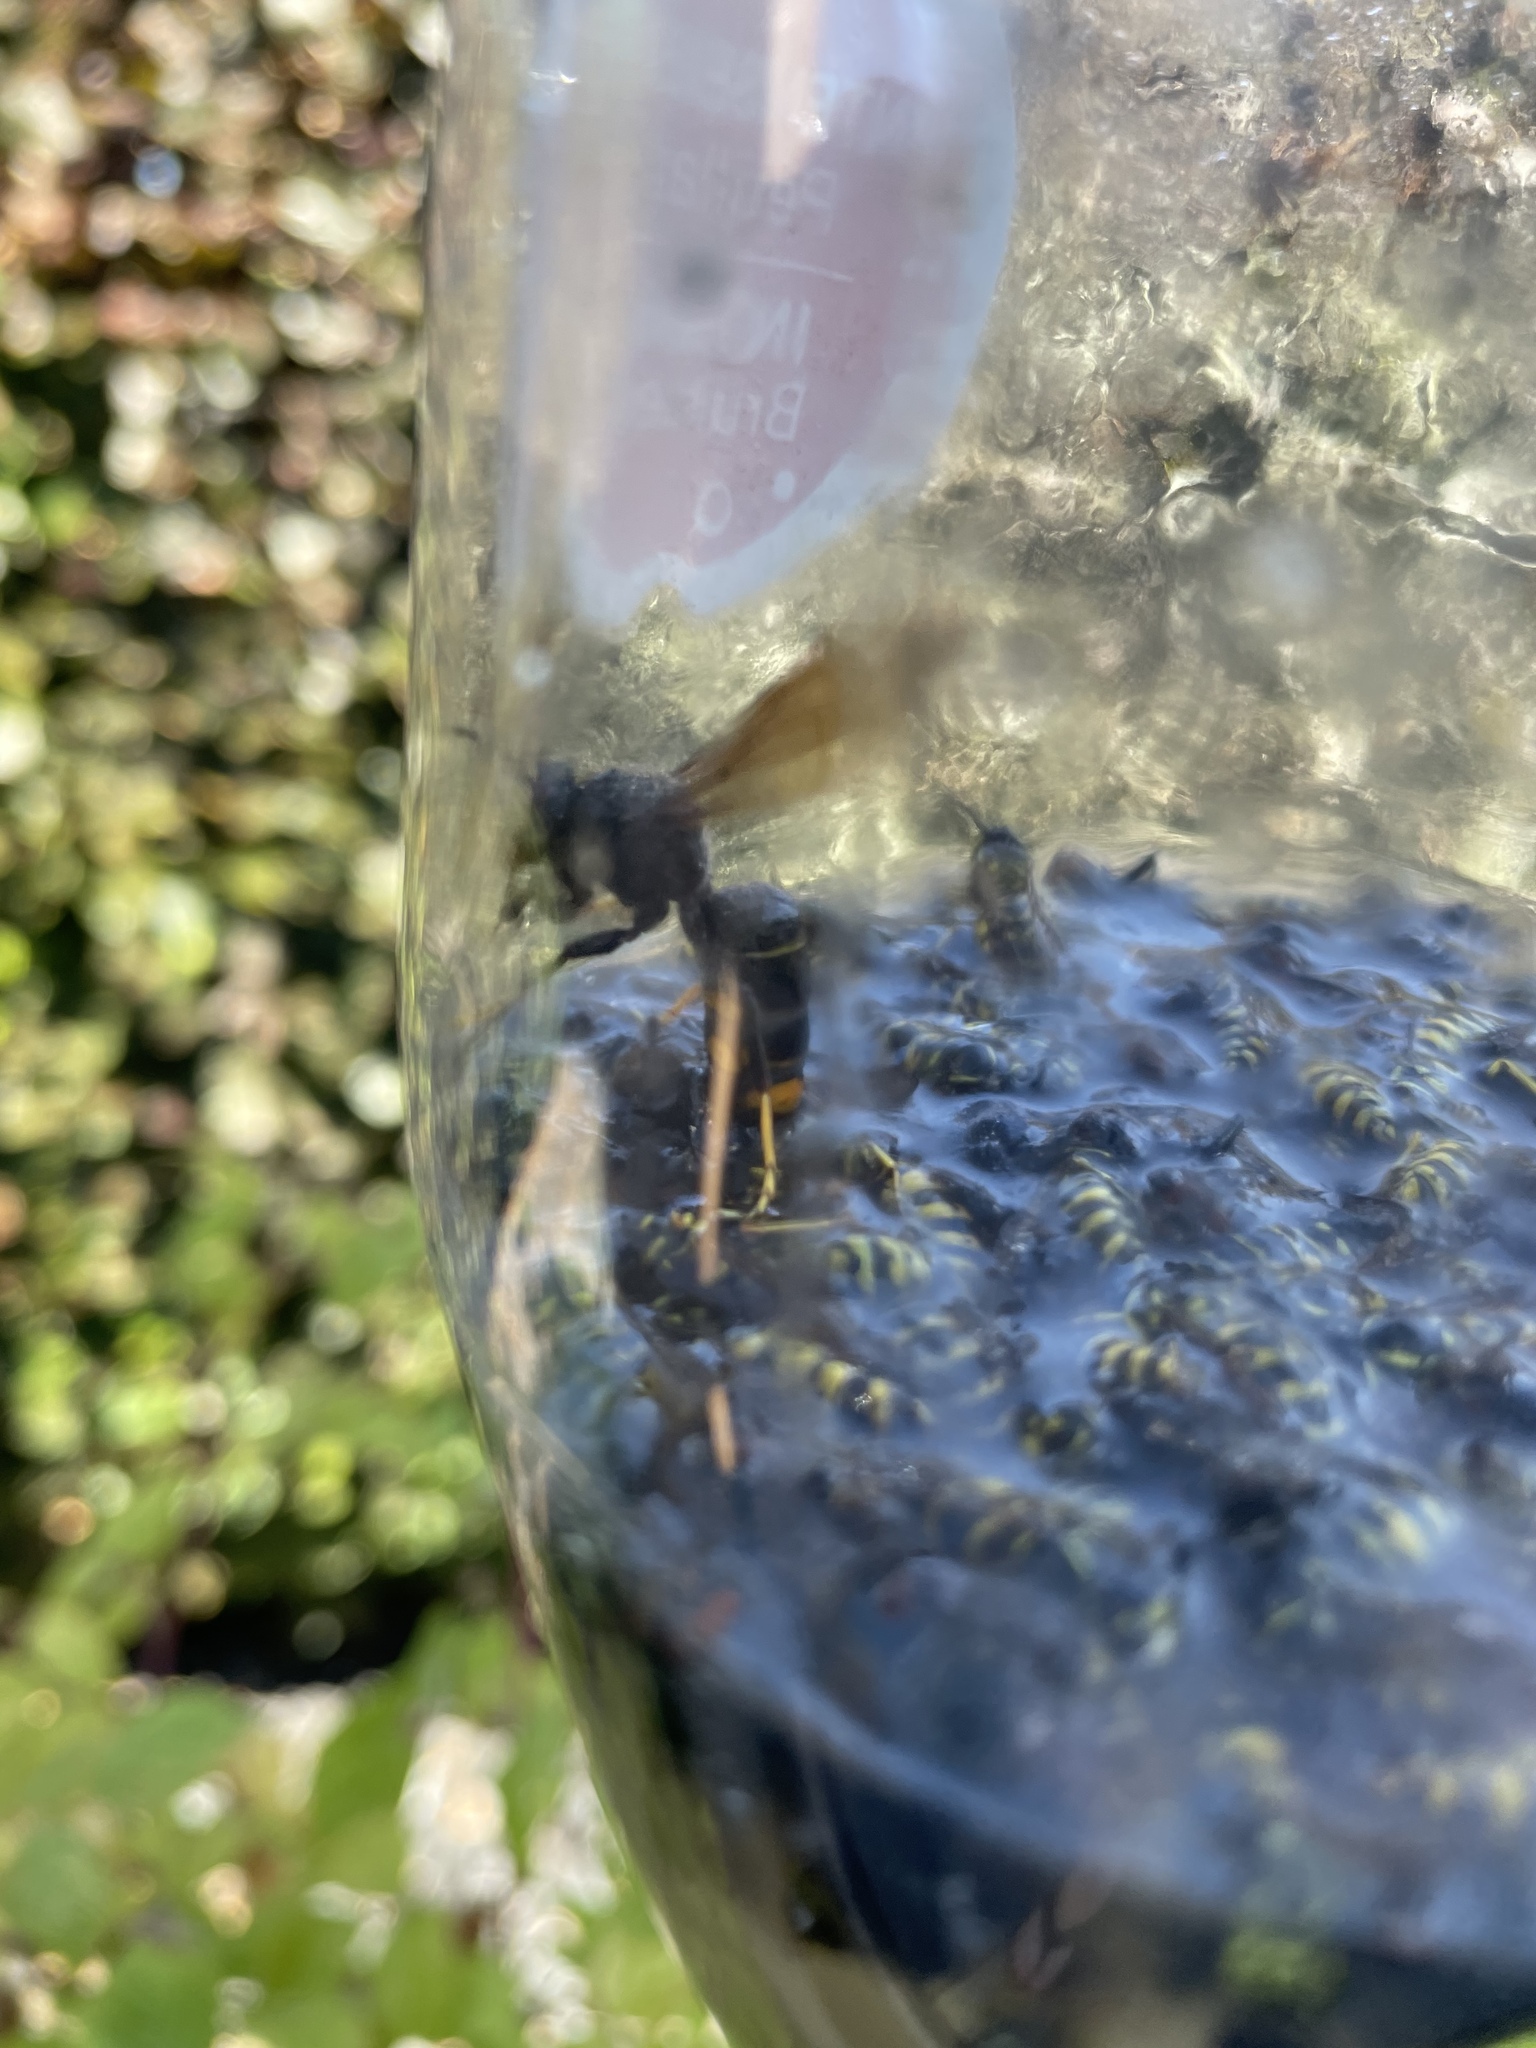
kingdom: Animalia
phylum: Arthropoda
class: Insecta
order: Hymenoptera
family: Vespidae
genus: Vespa
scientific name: Vespa velutina
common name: Asian hornet
